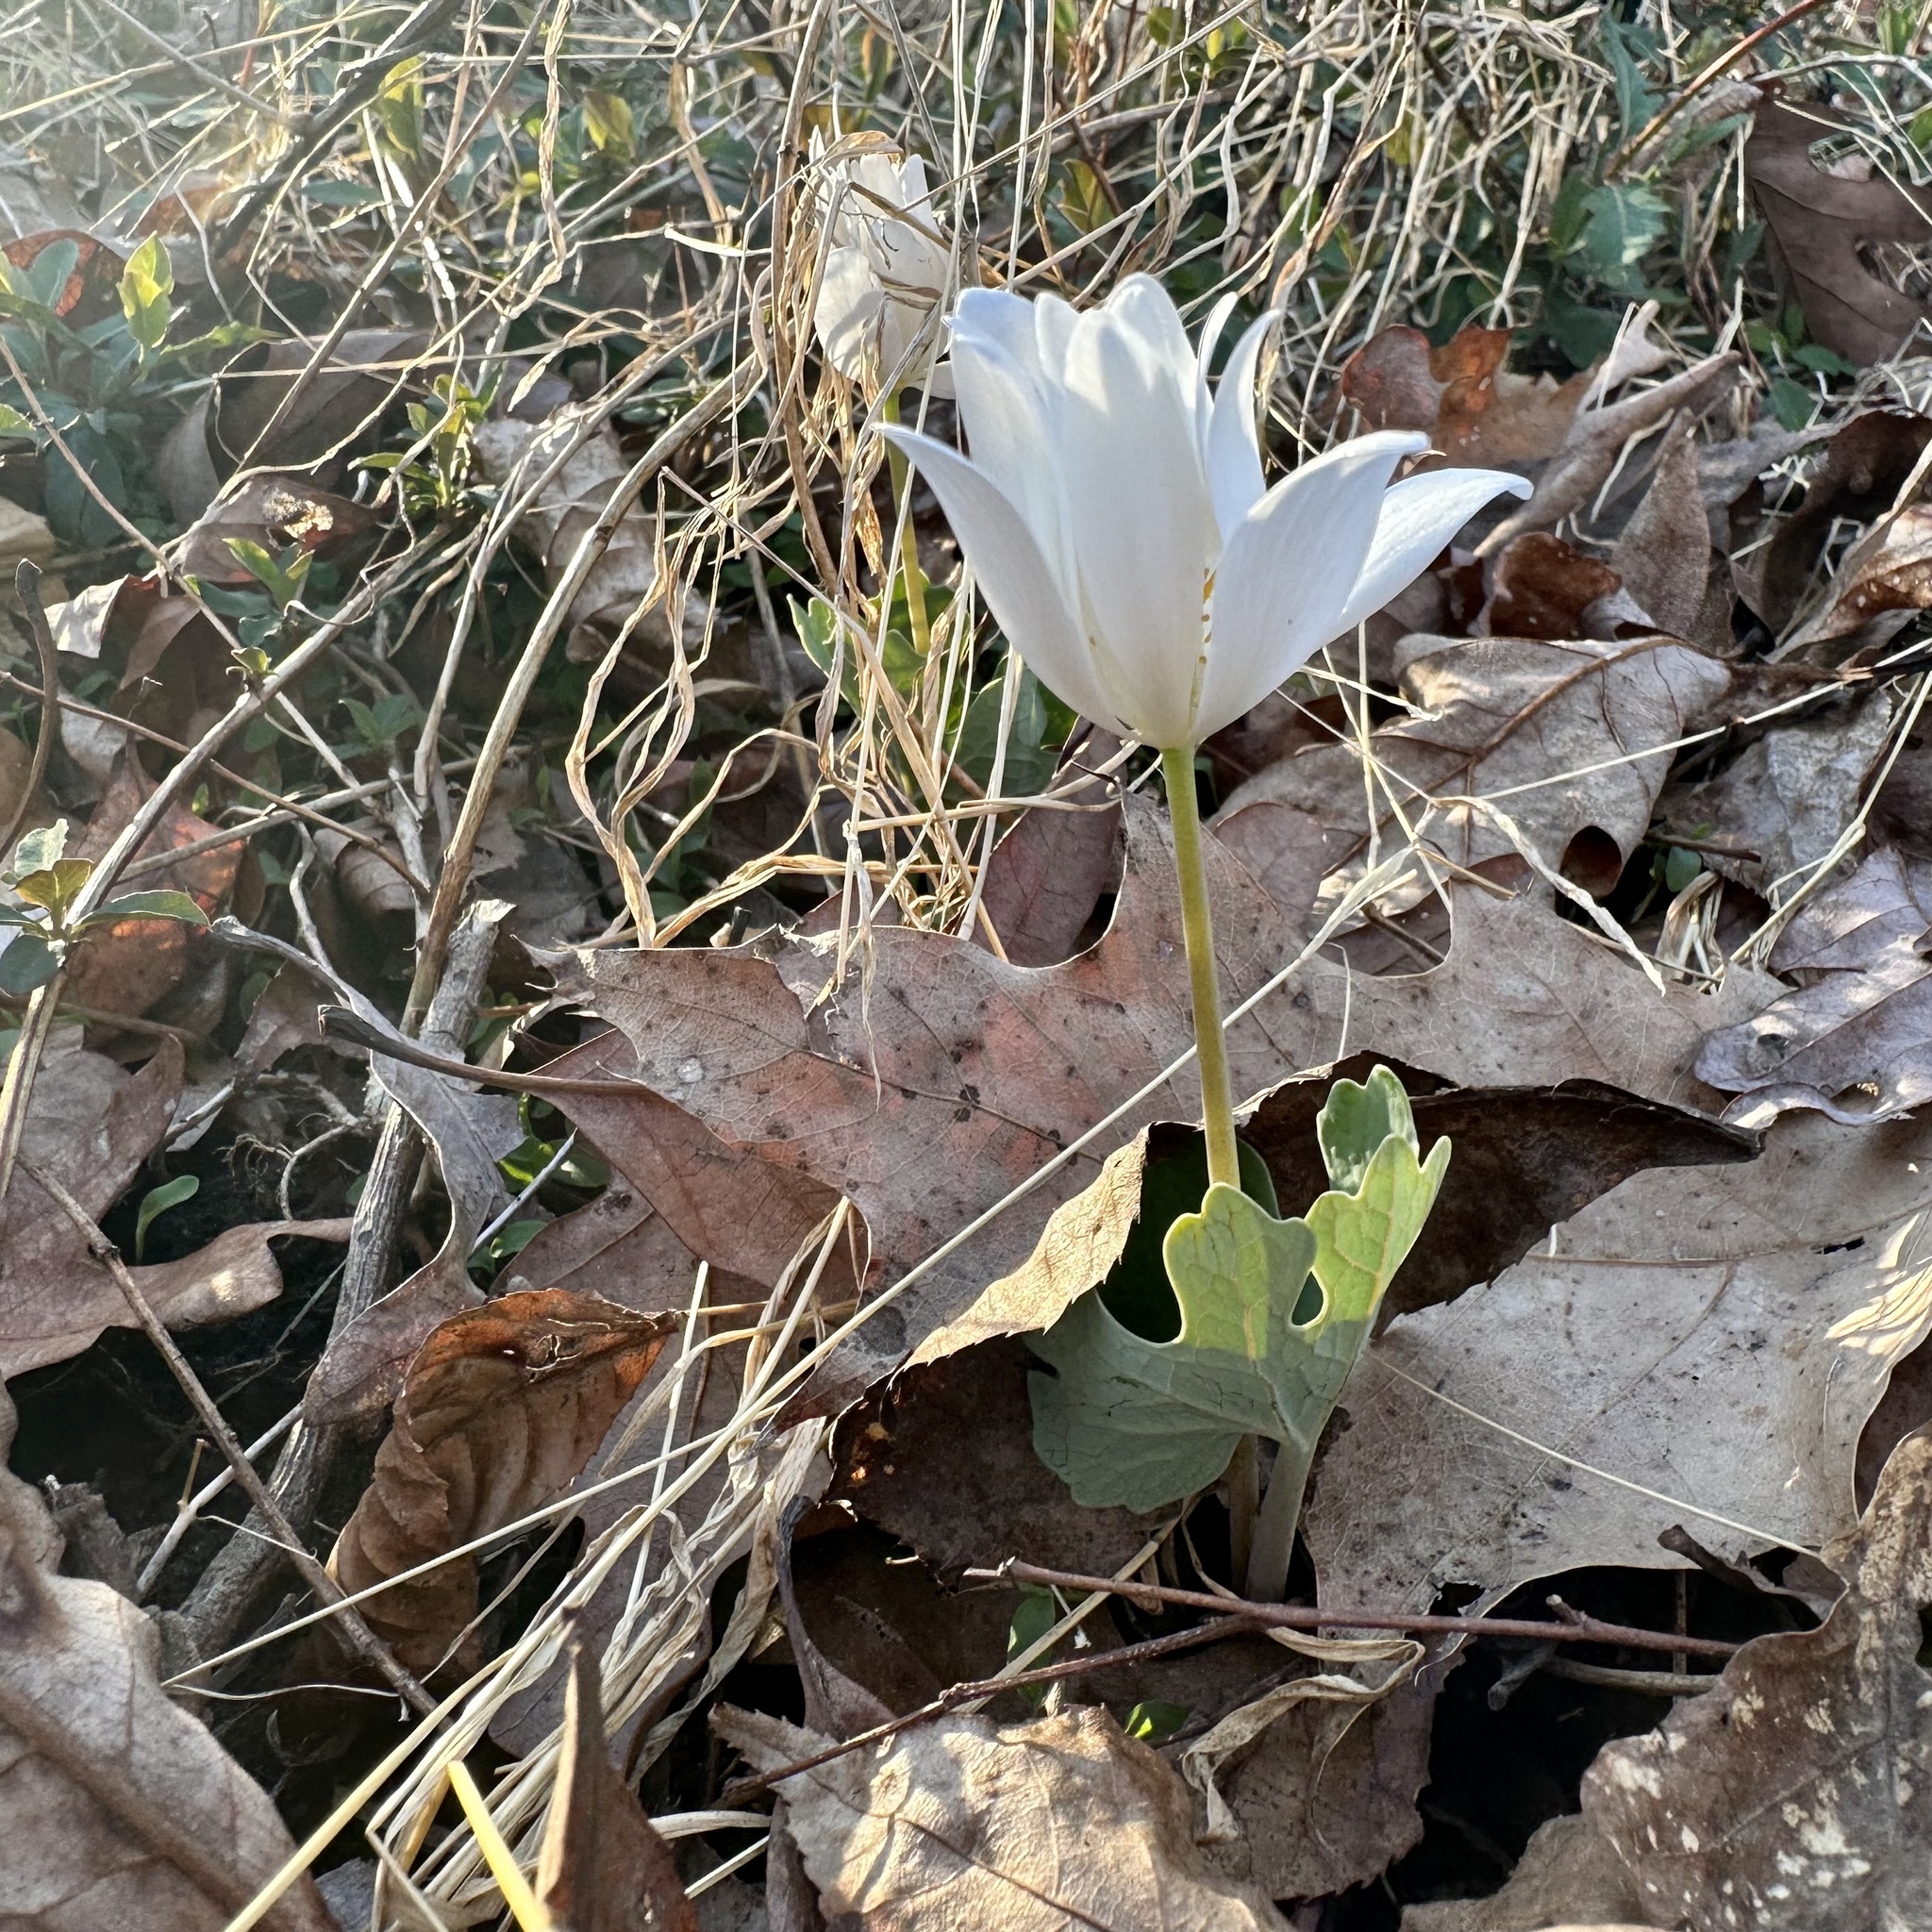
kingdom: Plantae
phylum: Tracheophyta
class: Magnoliopsida
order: Ranunculales
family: Papaveraceae
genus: Sanguinaria
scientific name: Sanguinaria canadensis
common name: Bloodroot
